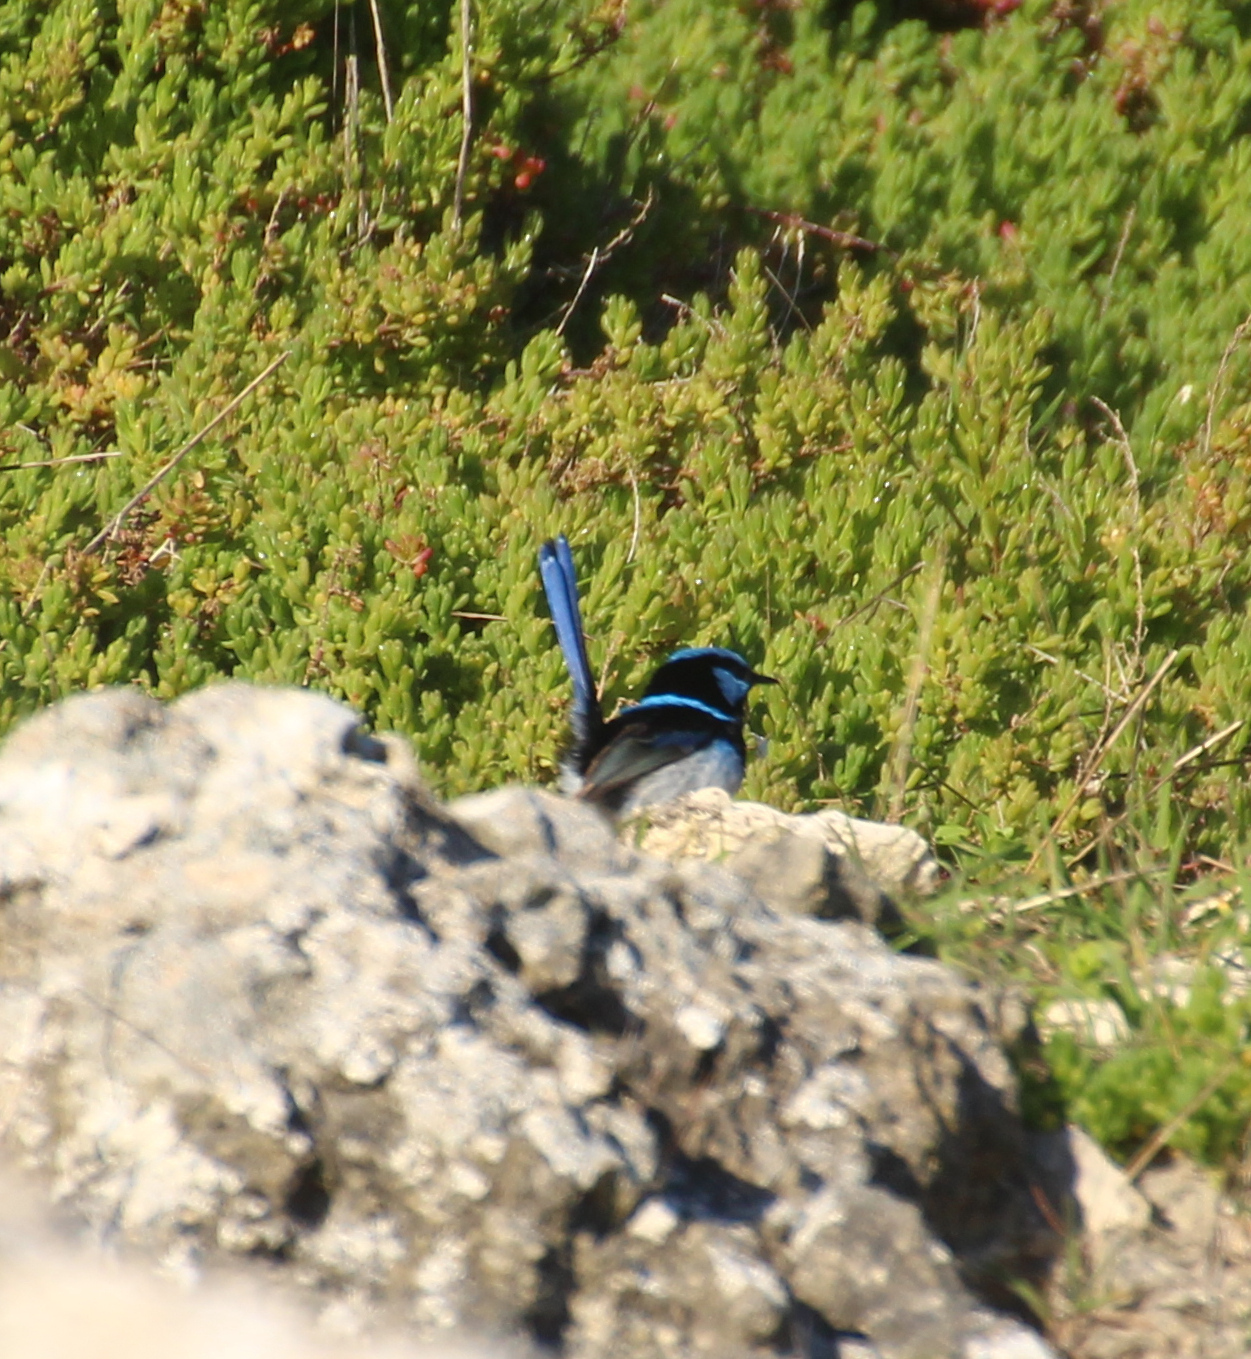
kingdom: Animalia
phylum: Chordata
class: Aves
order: Passeriformes
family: Maluridae
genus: Malurus
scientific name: Malurus cyaneus
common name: Superb fairywren
